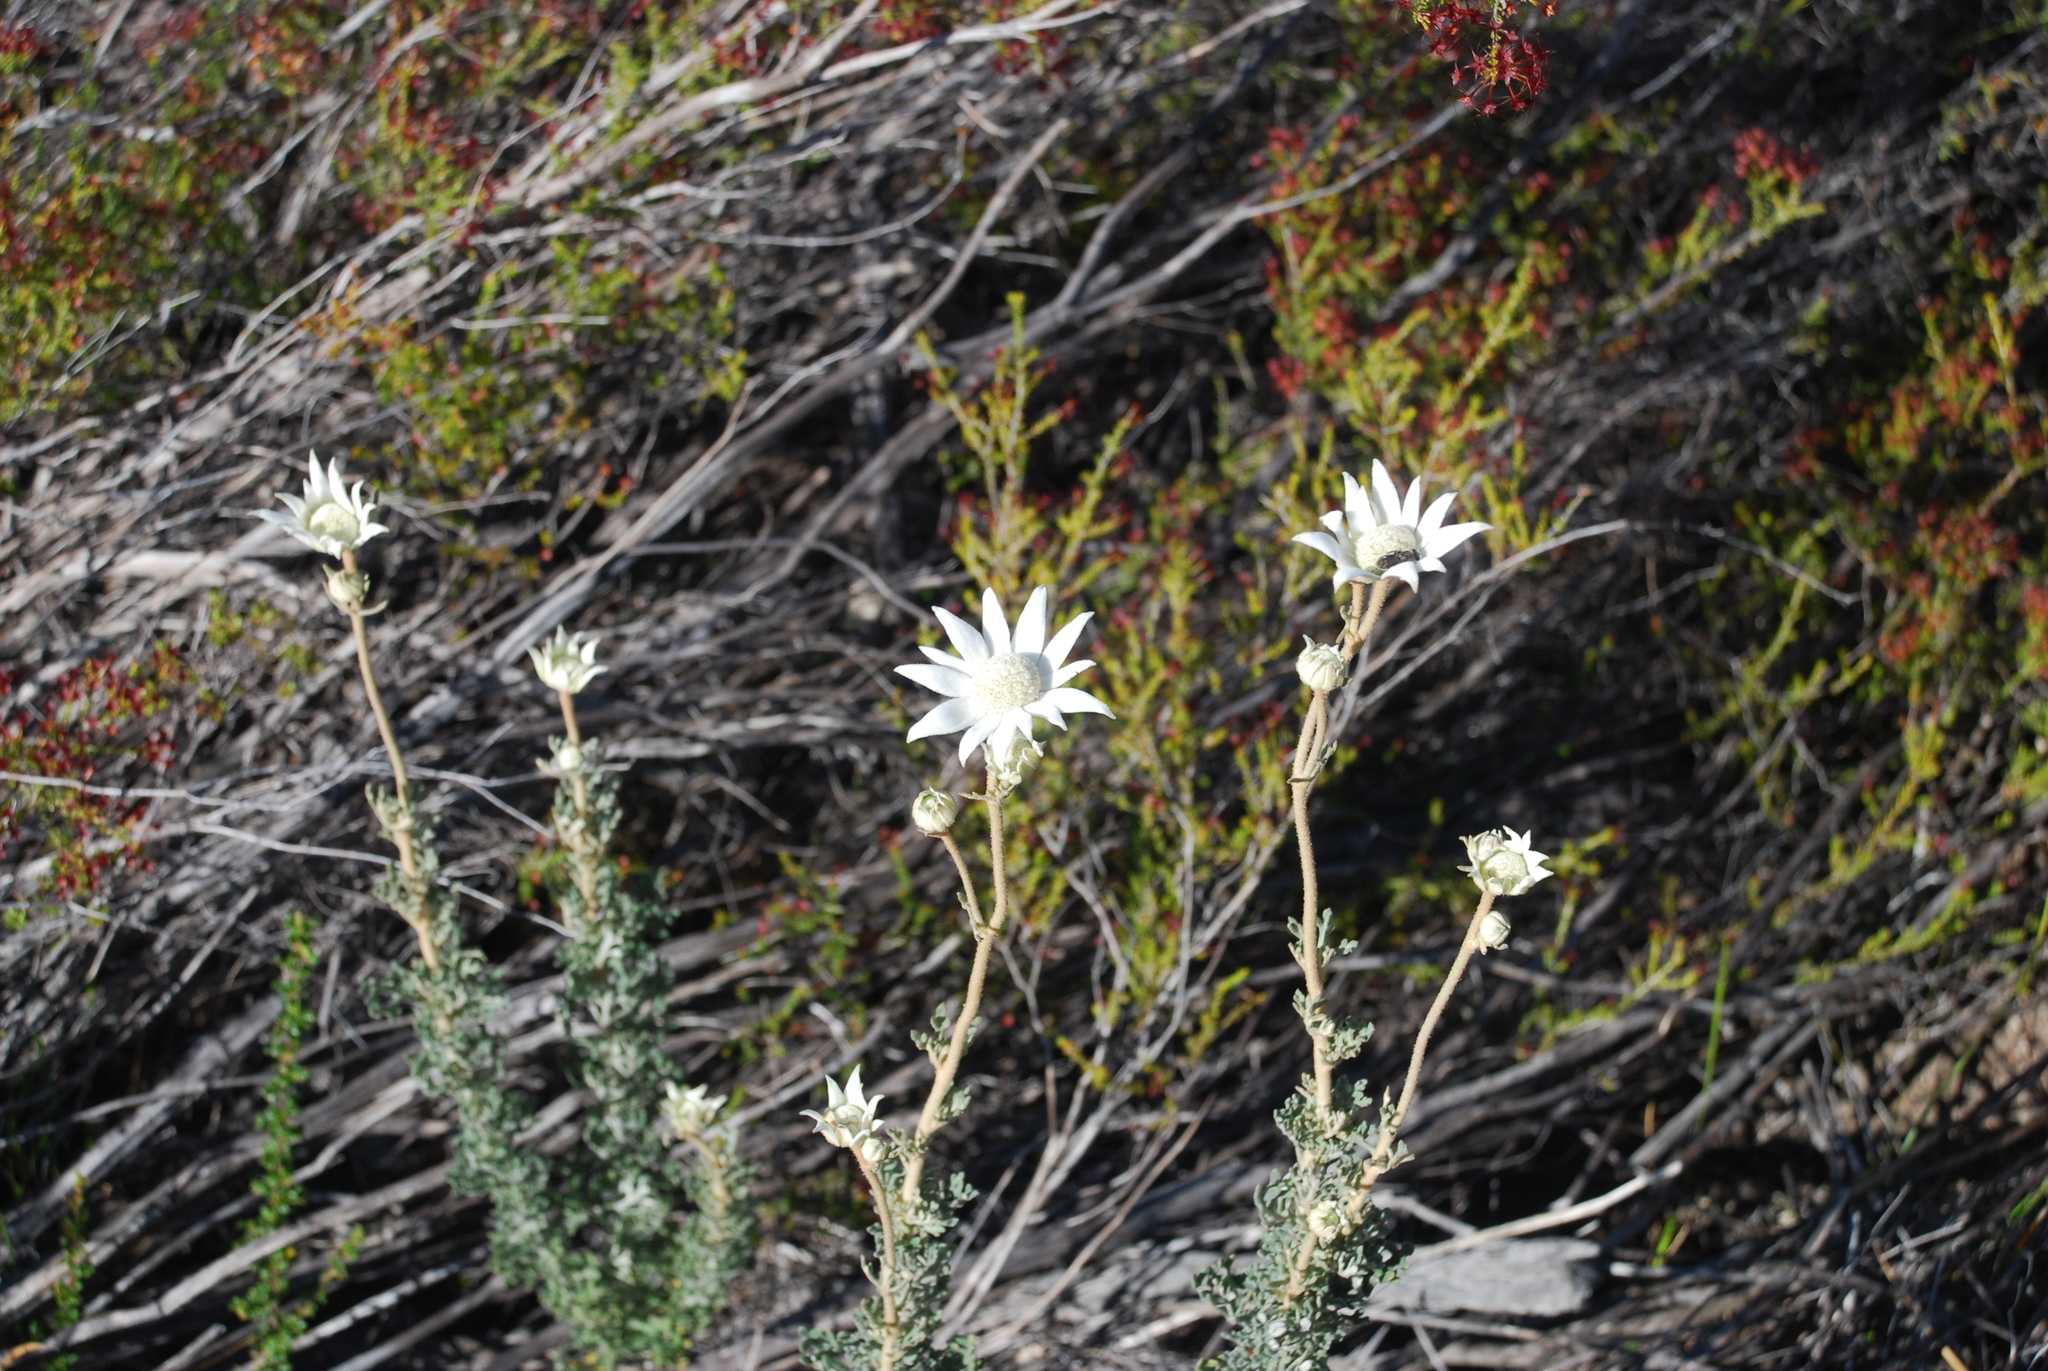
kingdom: Plantae
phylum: Tracheophyta
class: Magnoliopsida
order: Apiales
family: Apiaceae
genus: Actinotus
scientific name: Actinotus helianthi
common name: Flannel-flower
